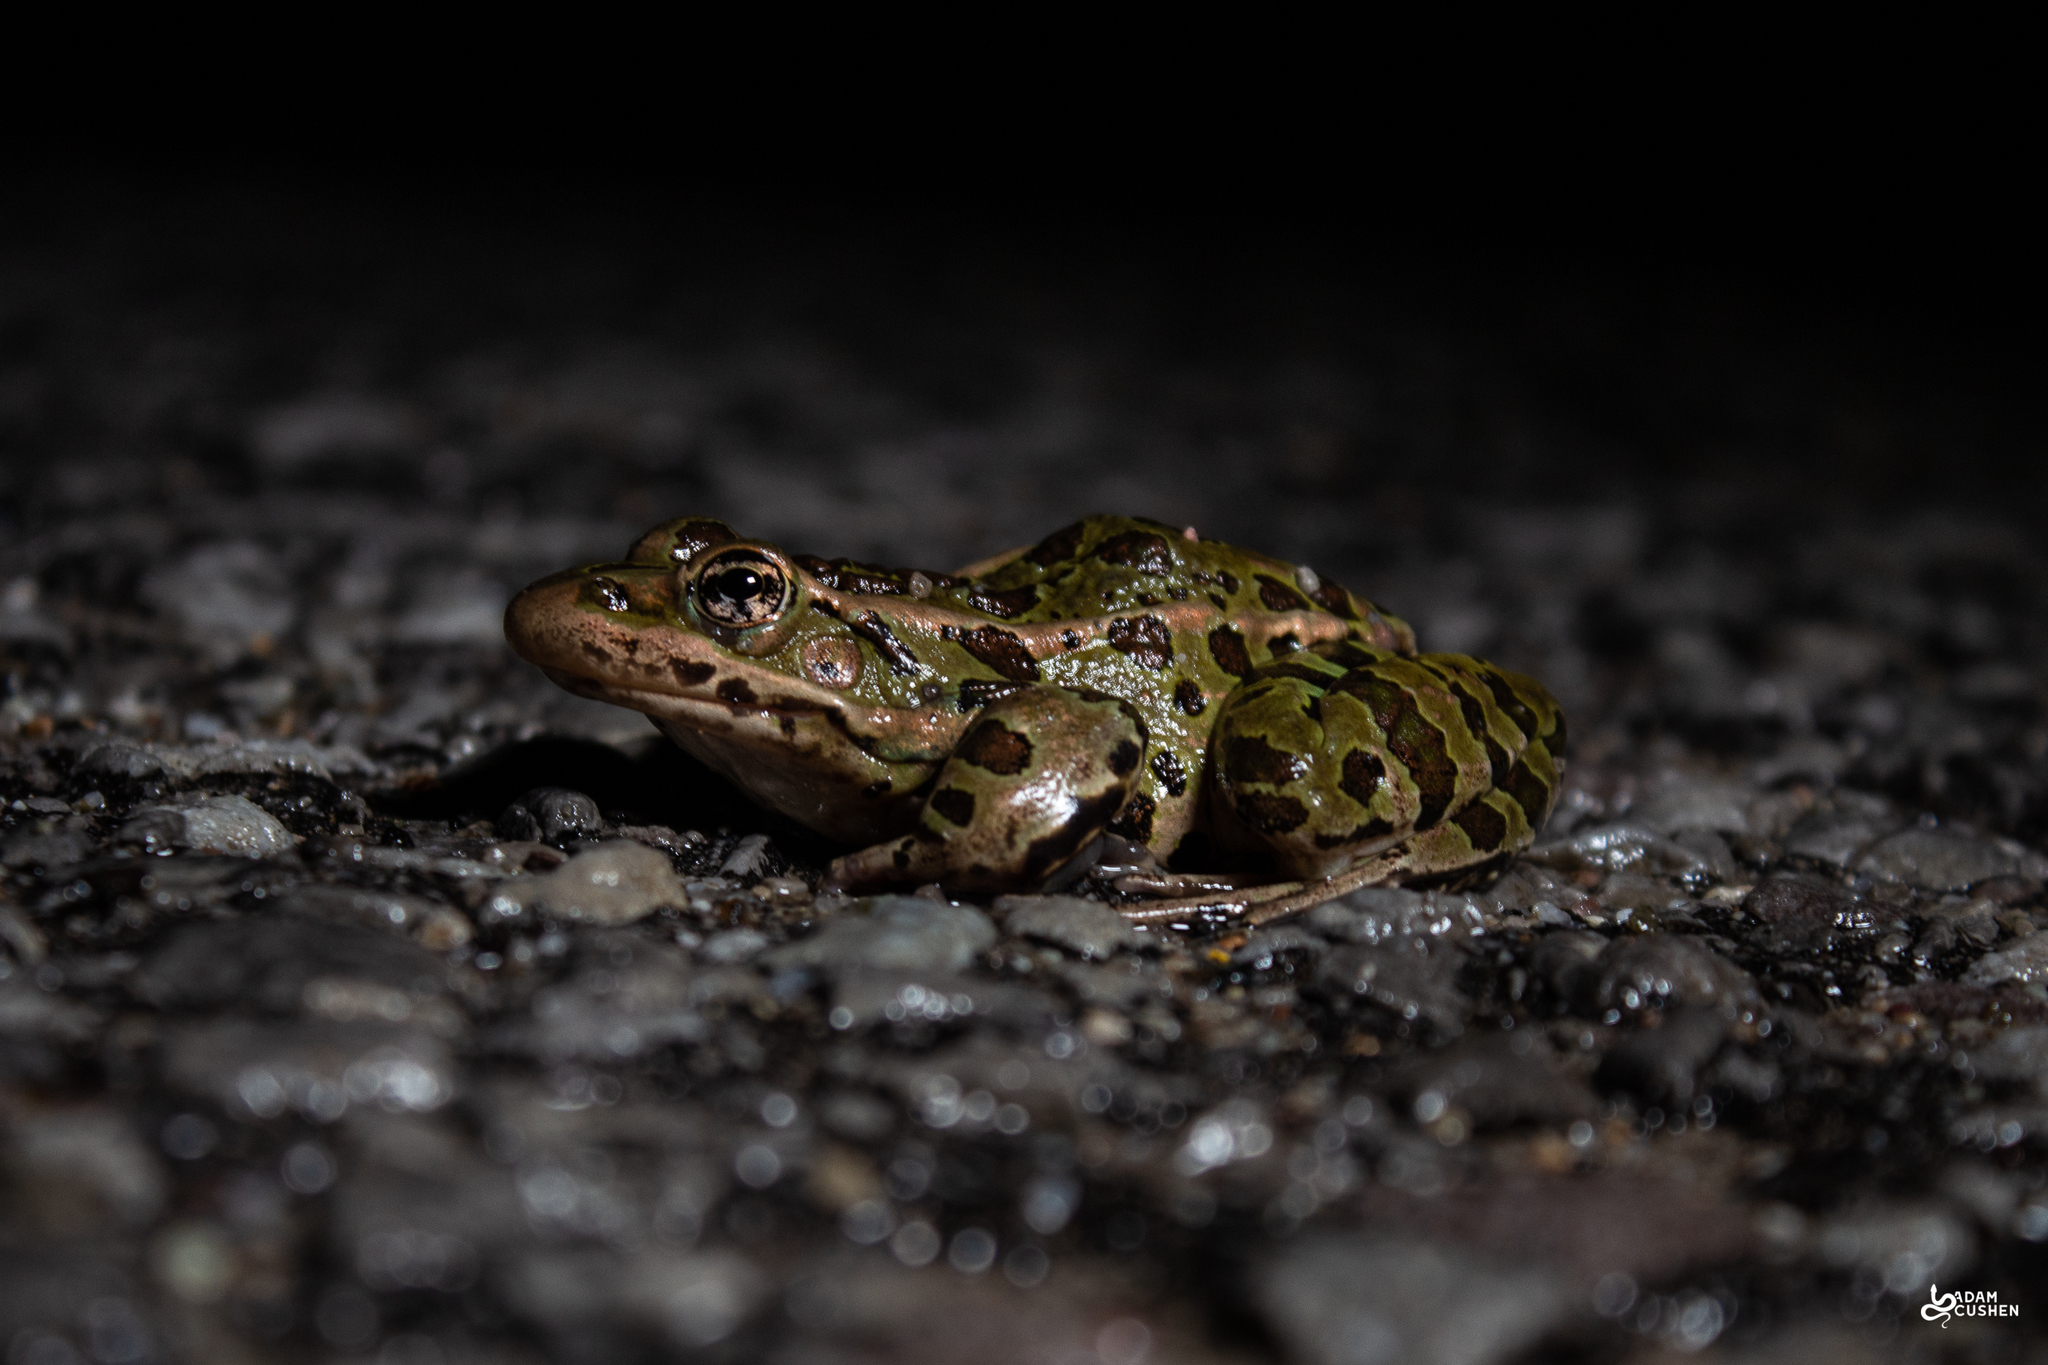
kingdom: Animalia
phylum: Chordata
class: Amphibia
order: Anura
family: Ranidae
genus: Lithobates
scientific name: Lithobates pipiens
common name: Northern leopard frog
